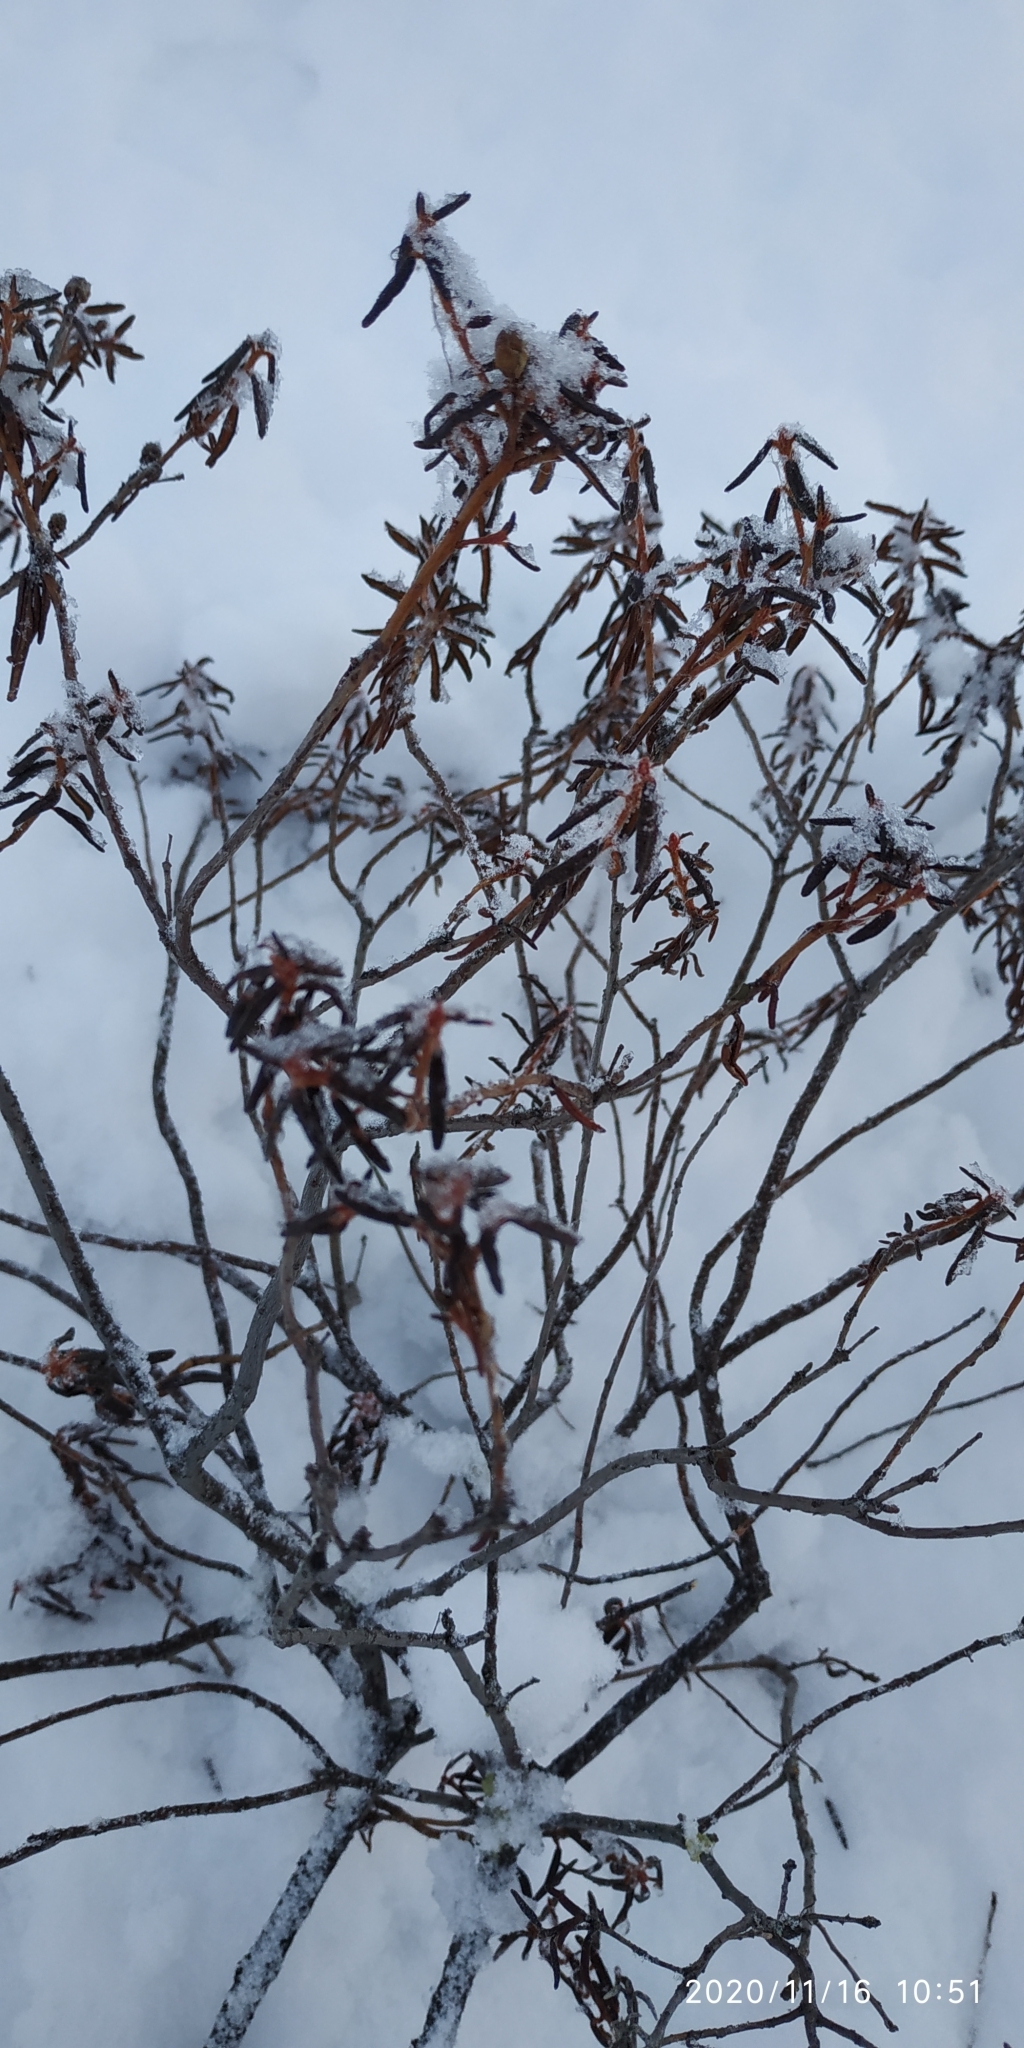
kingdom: Plantae
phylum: Tracheophyta
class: Magnoliopsida
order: Ericales
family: Ericaceae
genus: Rhododendron
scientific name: Rhododendron tomentosum
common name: Marsh labrador tea
